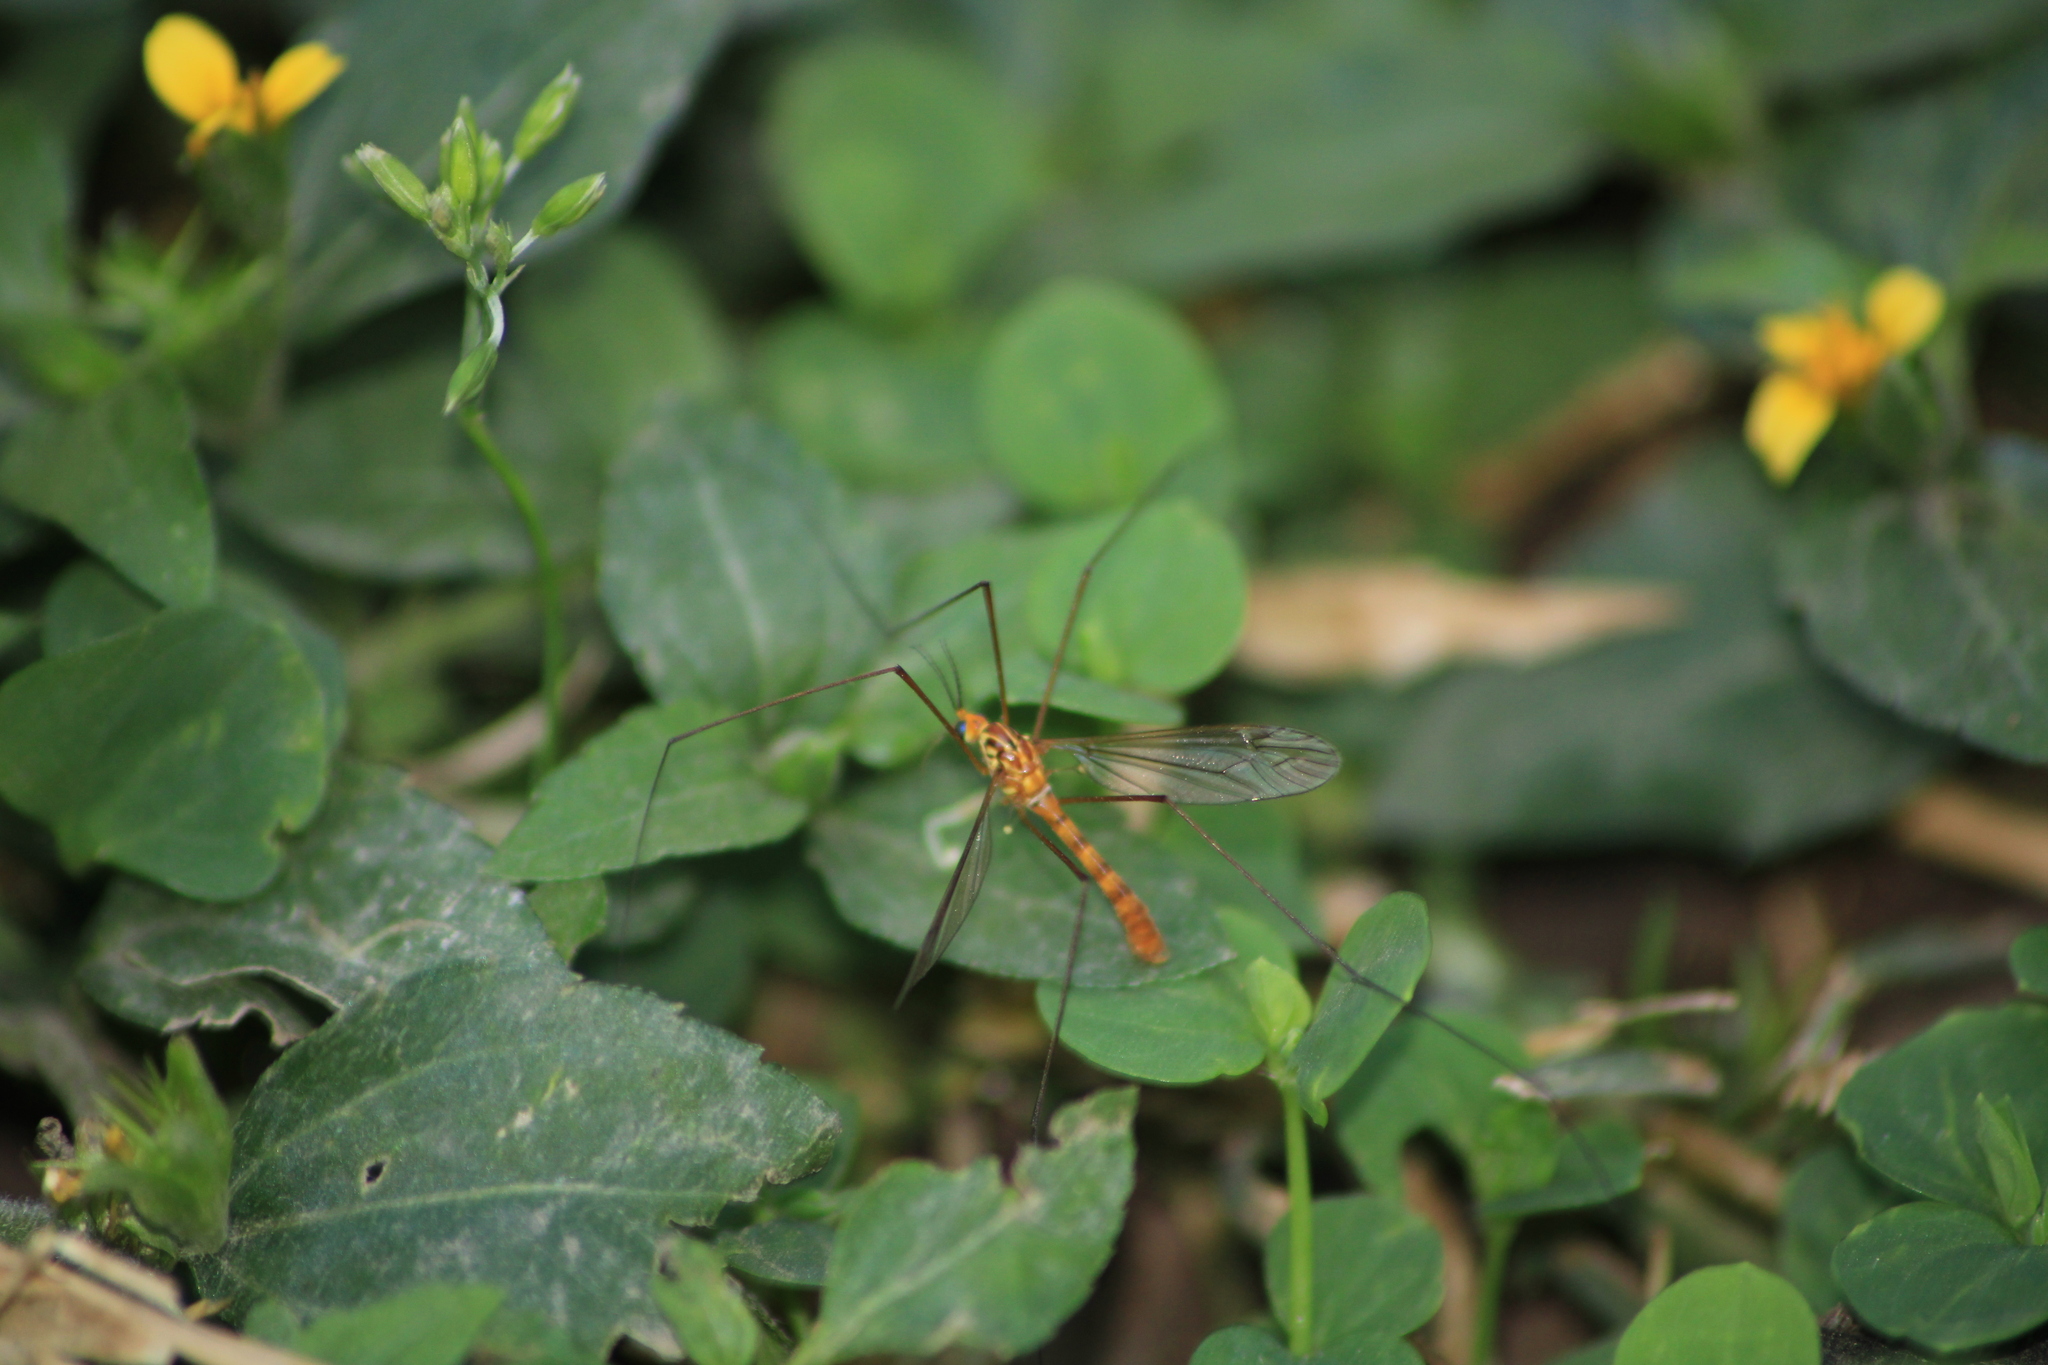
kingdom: Animalia
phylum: Arthropoda
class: Insecta
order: Diptera
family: Tipulidae
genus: Nephrotoma
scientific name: Nephrotoma
